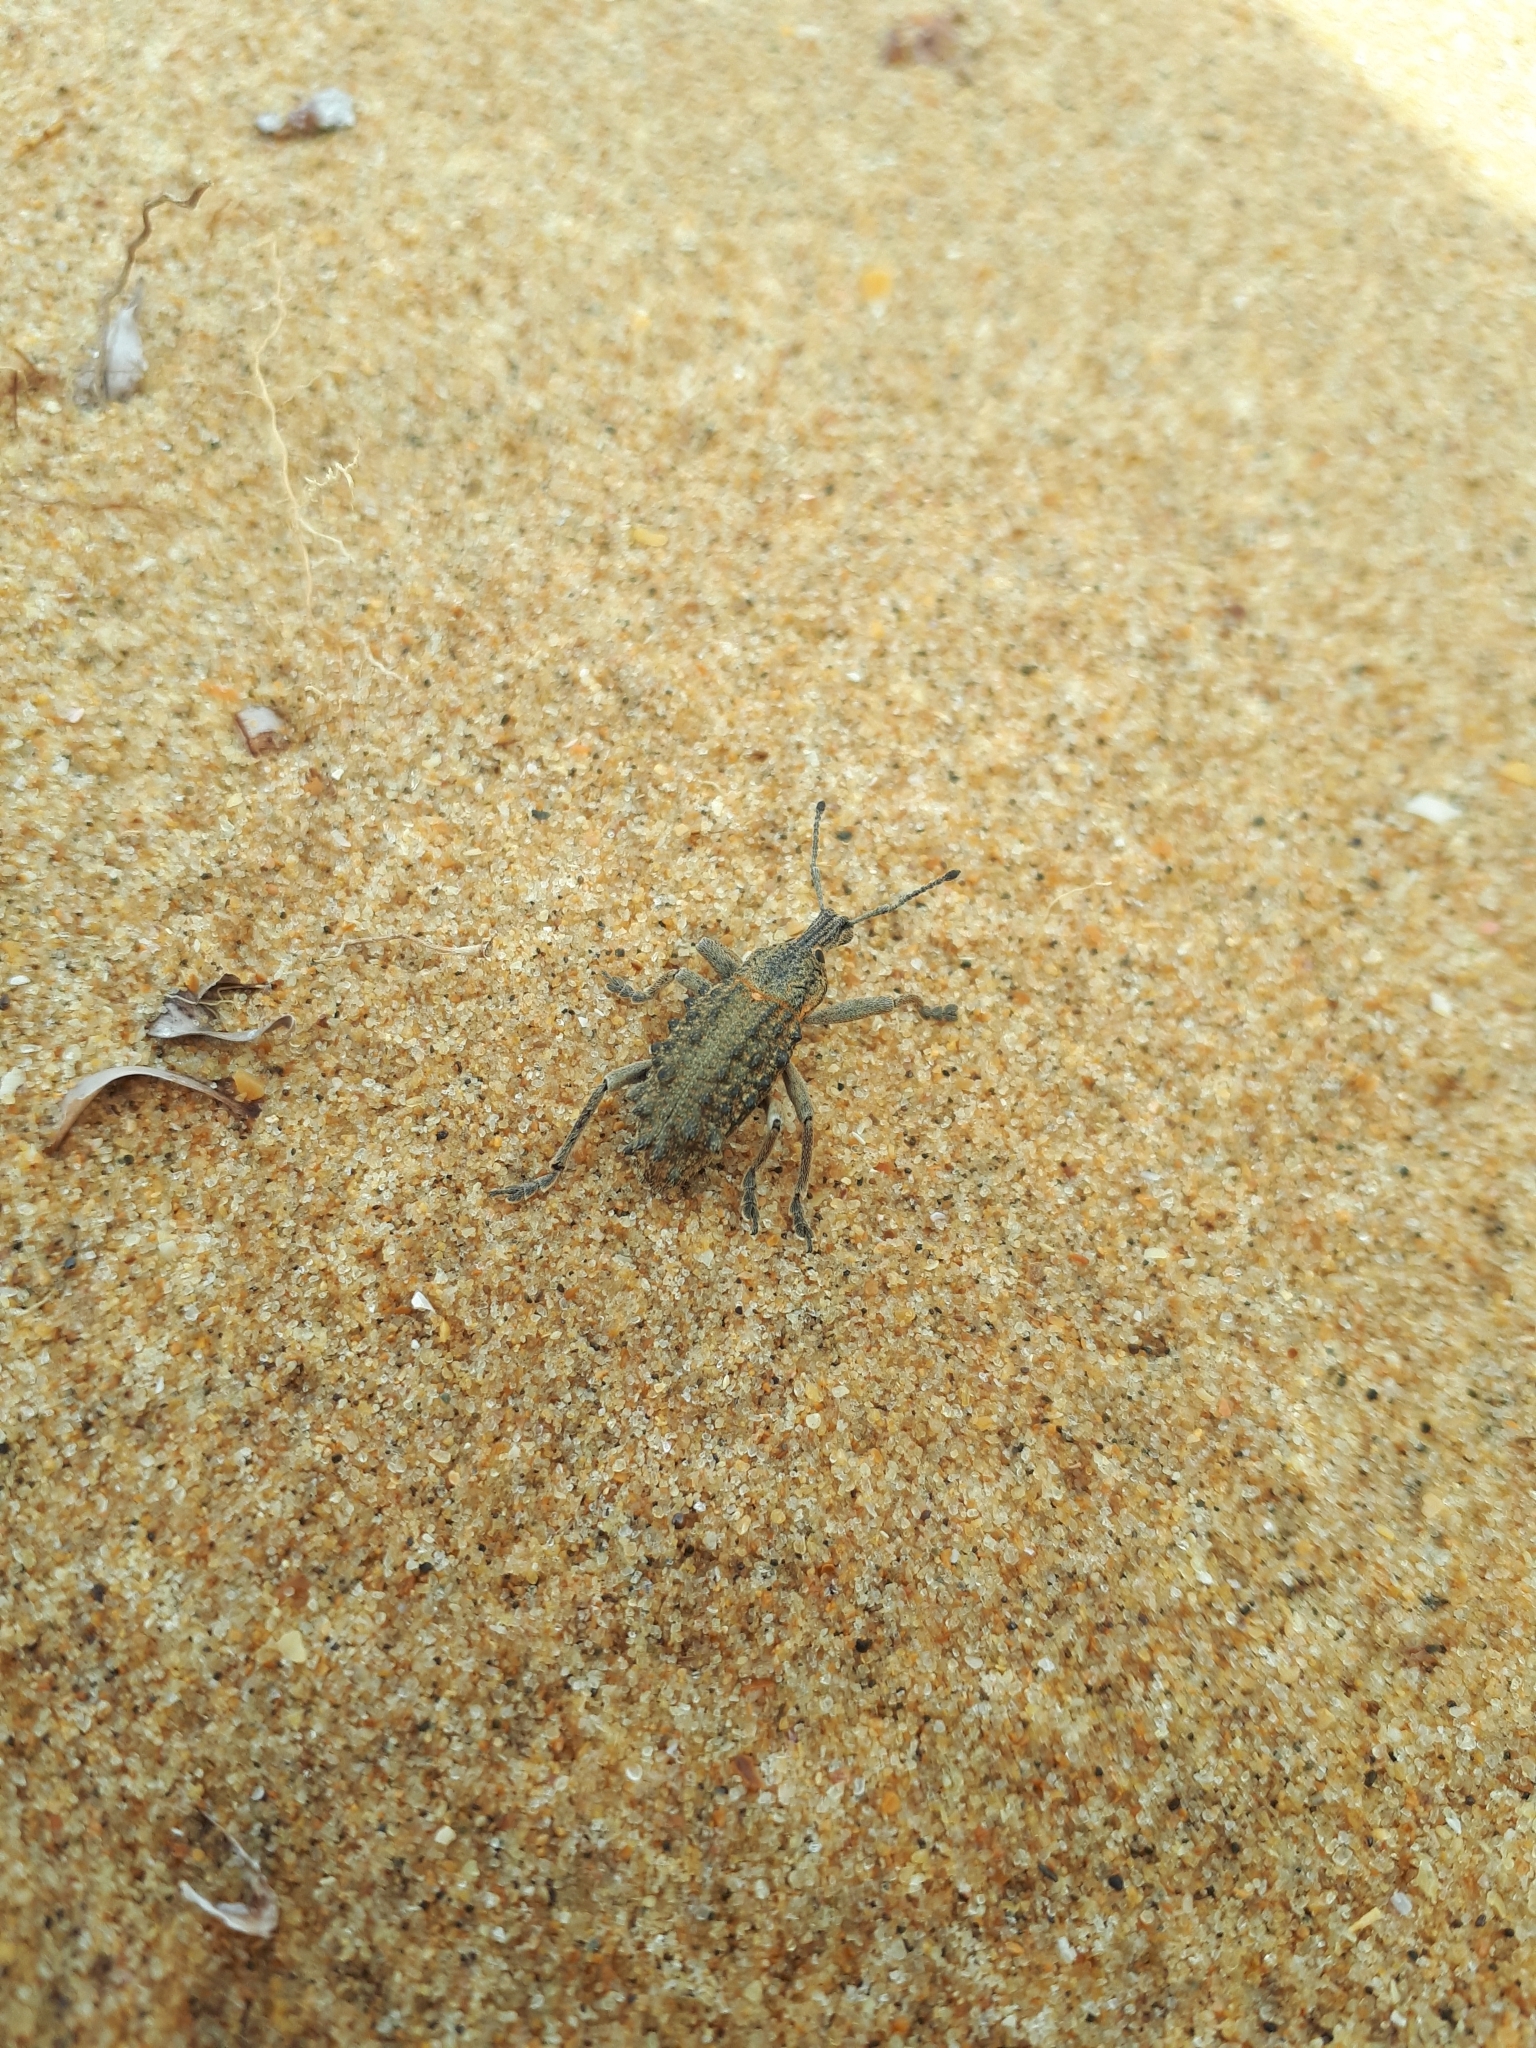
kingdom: Animalia
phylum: Arthropoda
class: Insecta
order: Coleoptera
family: Curculionidae
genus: Leptopius
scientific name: Leptopius duponti
